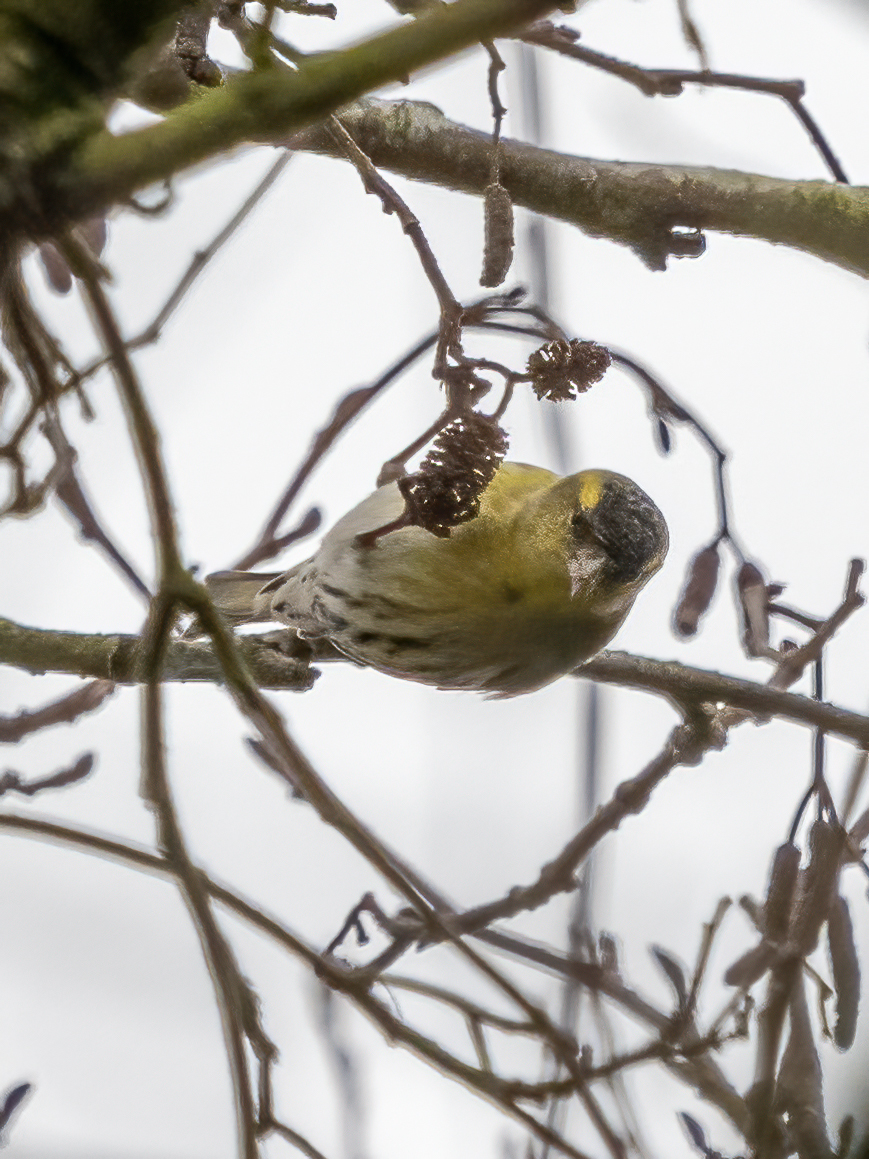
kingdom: Animalia
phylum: Chordata
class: Aves
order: Passeriformes
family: Fringillidae
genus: Spinus
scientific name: Spinus spinus
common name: Eurasian siskin
